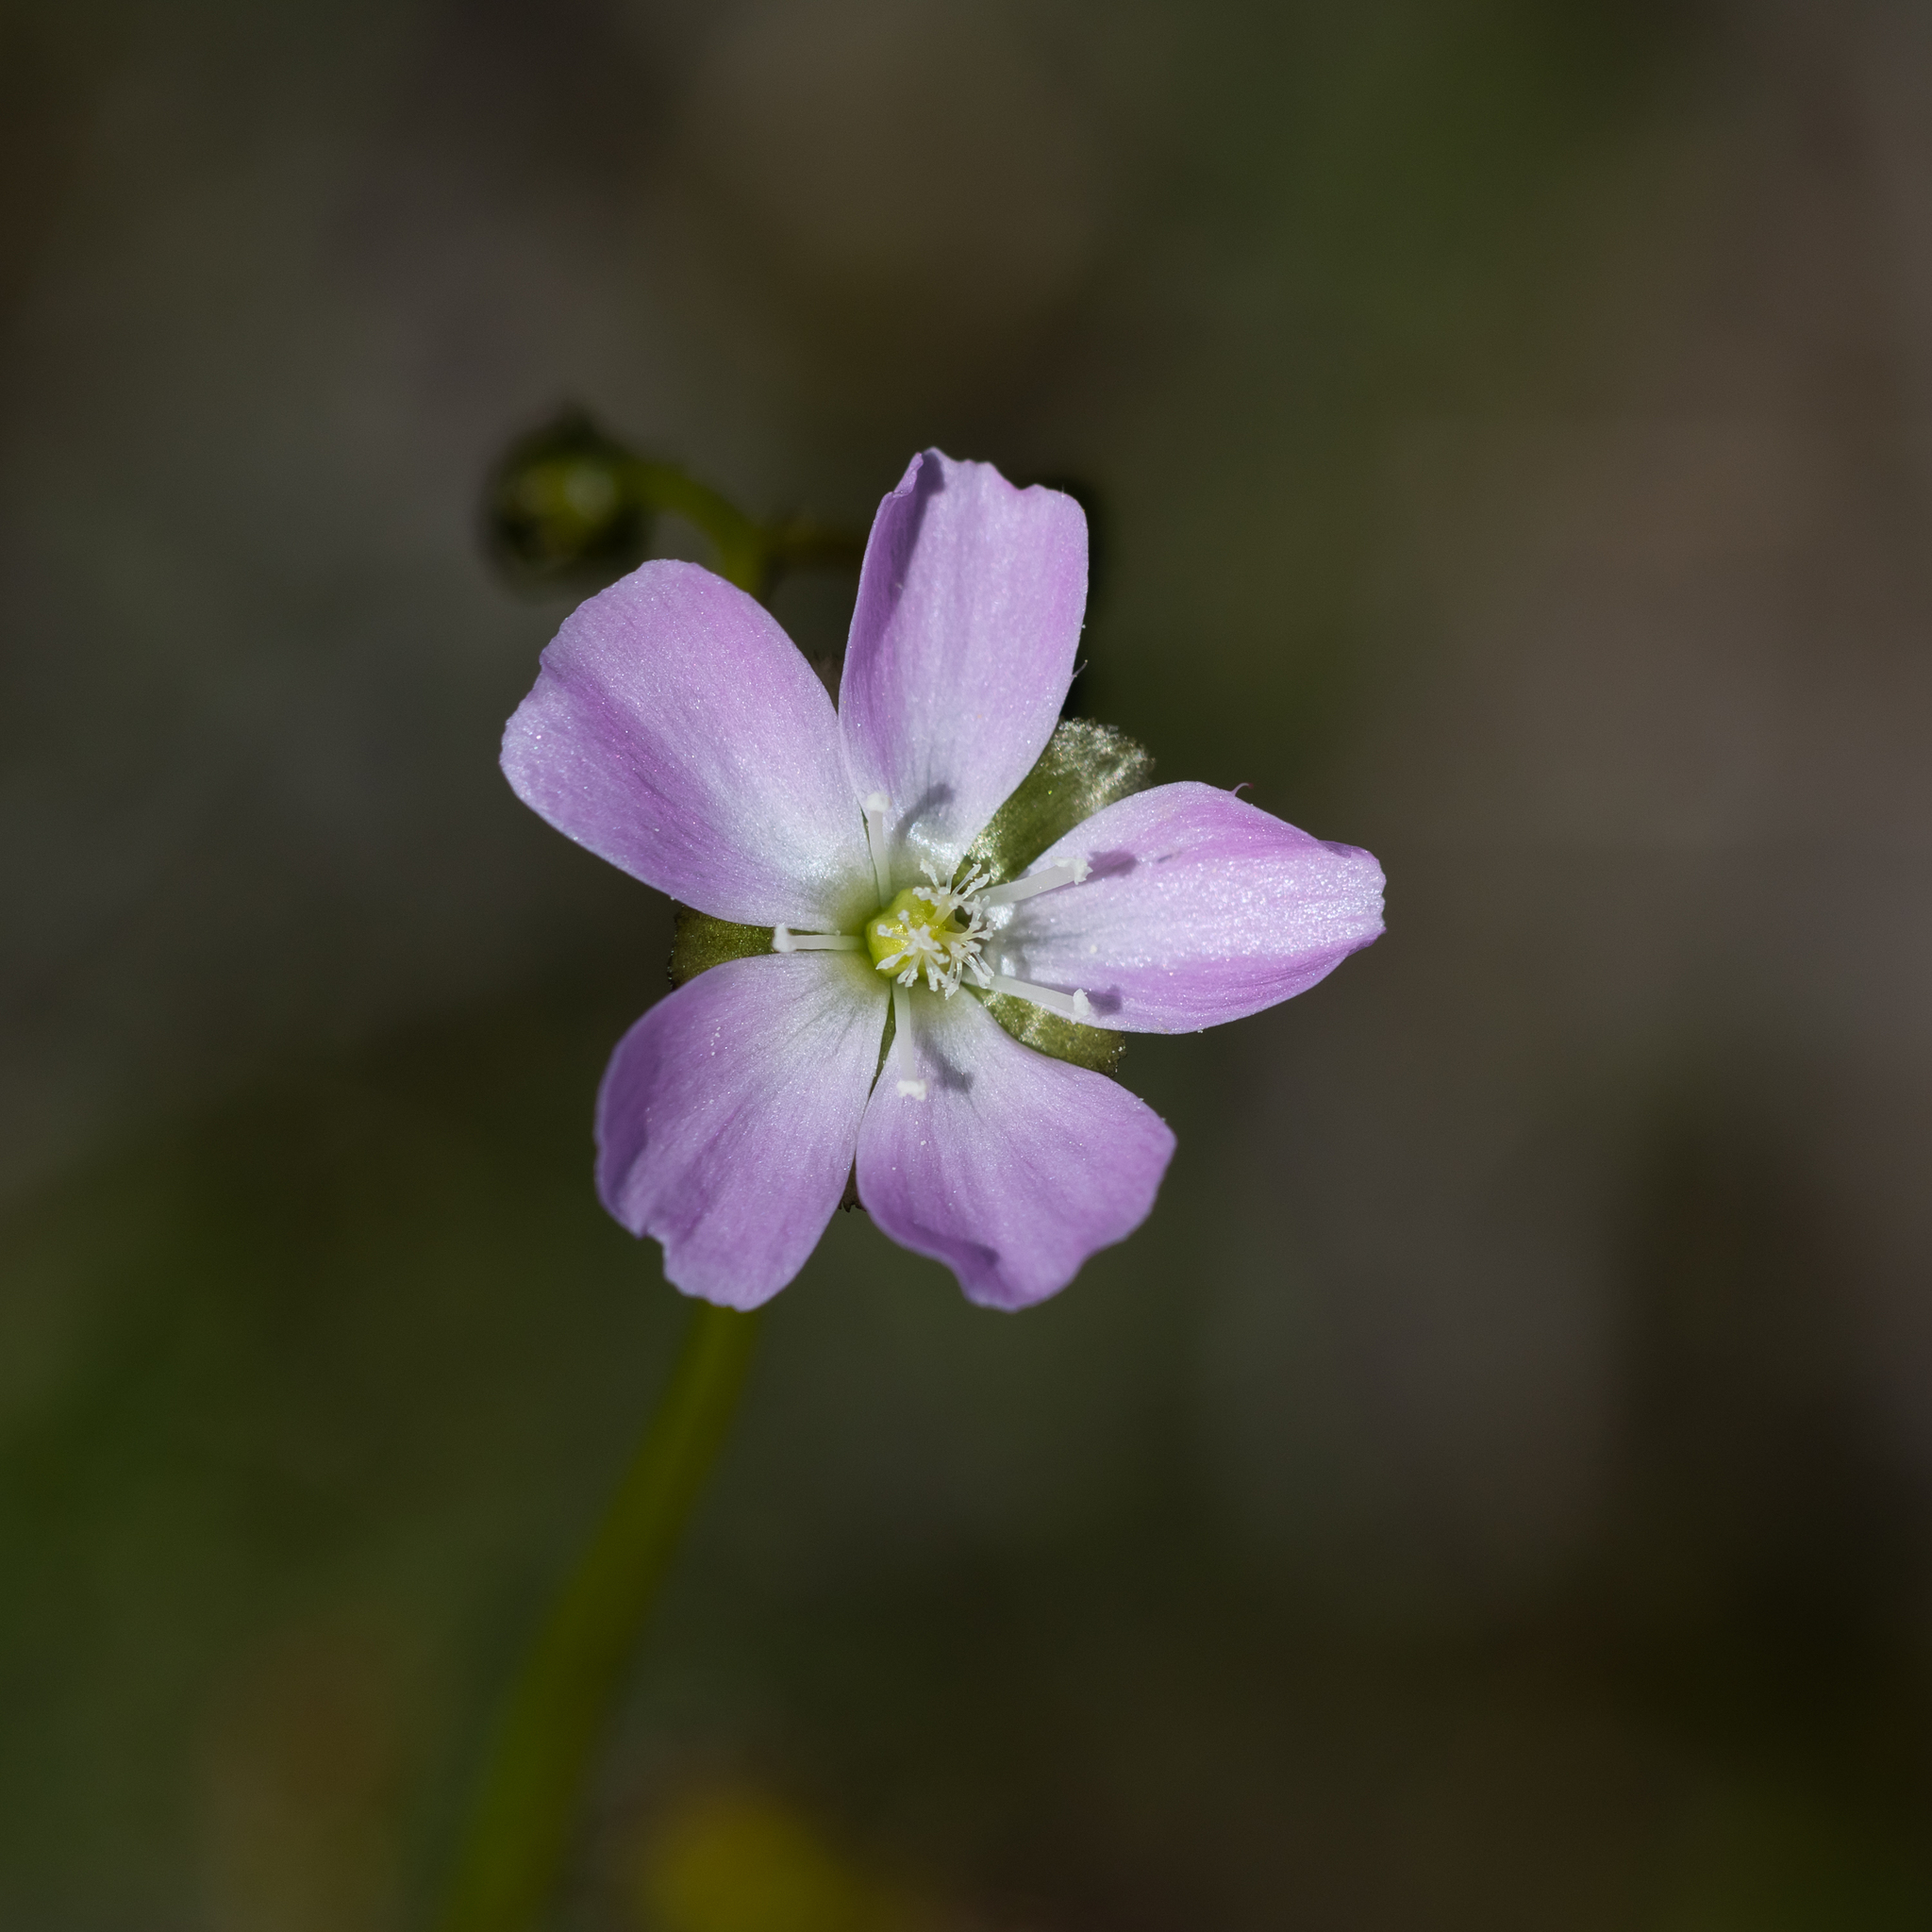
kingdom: Plantae
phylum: Tracheophyta
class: Magnoliopsida
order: Caryophyllales
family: Droseraceae
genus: Drosera
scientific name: Drosera peltata
